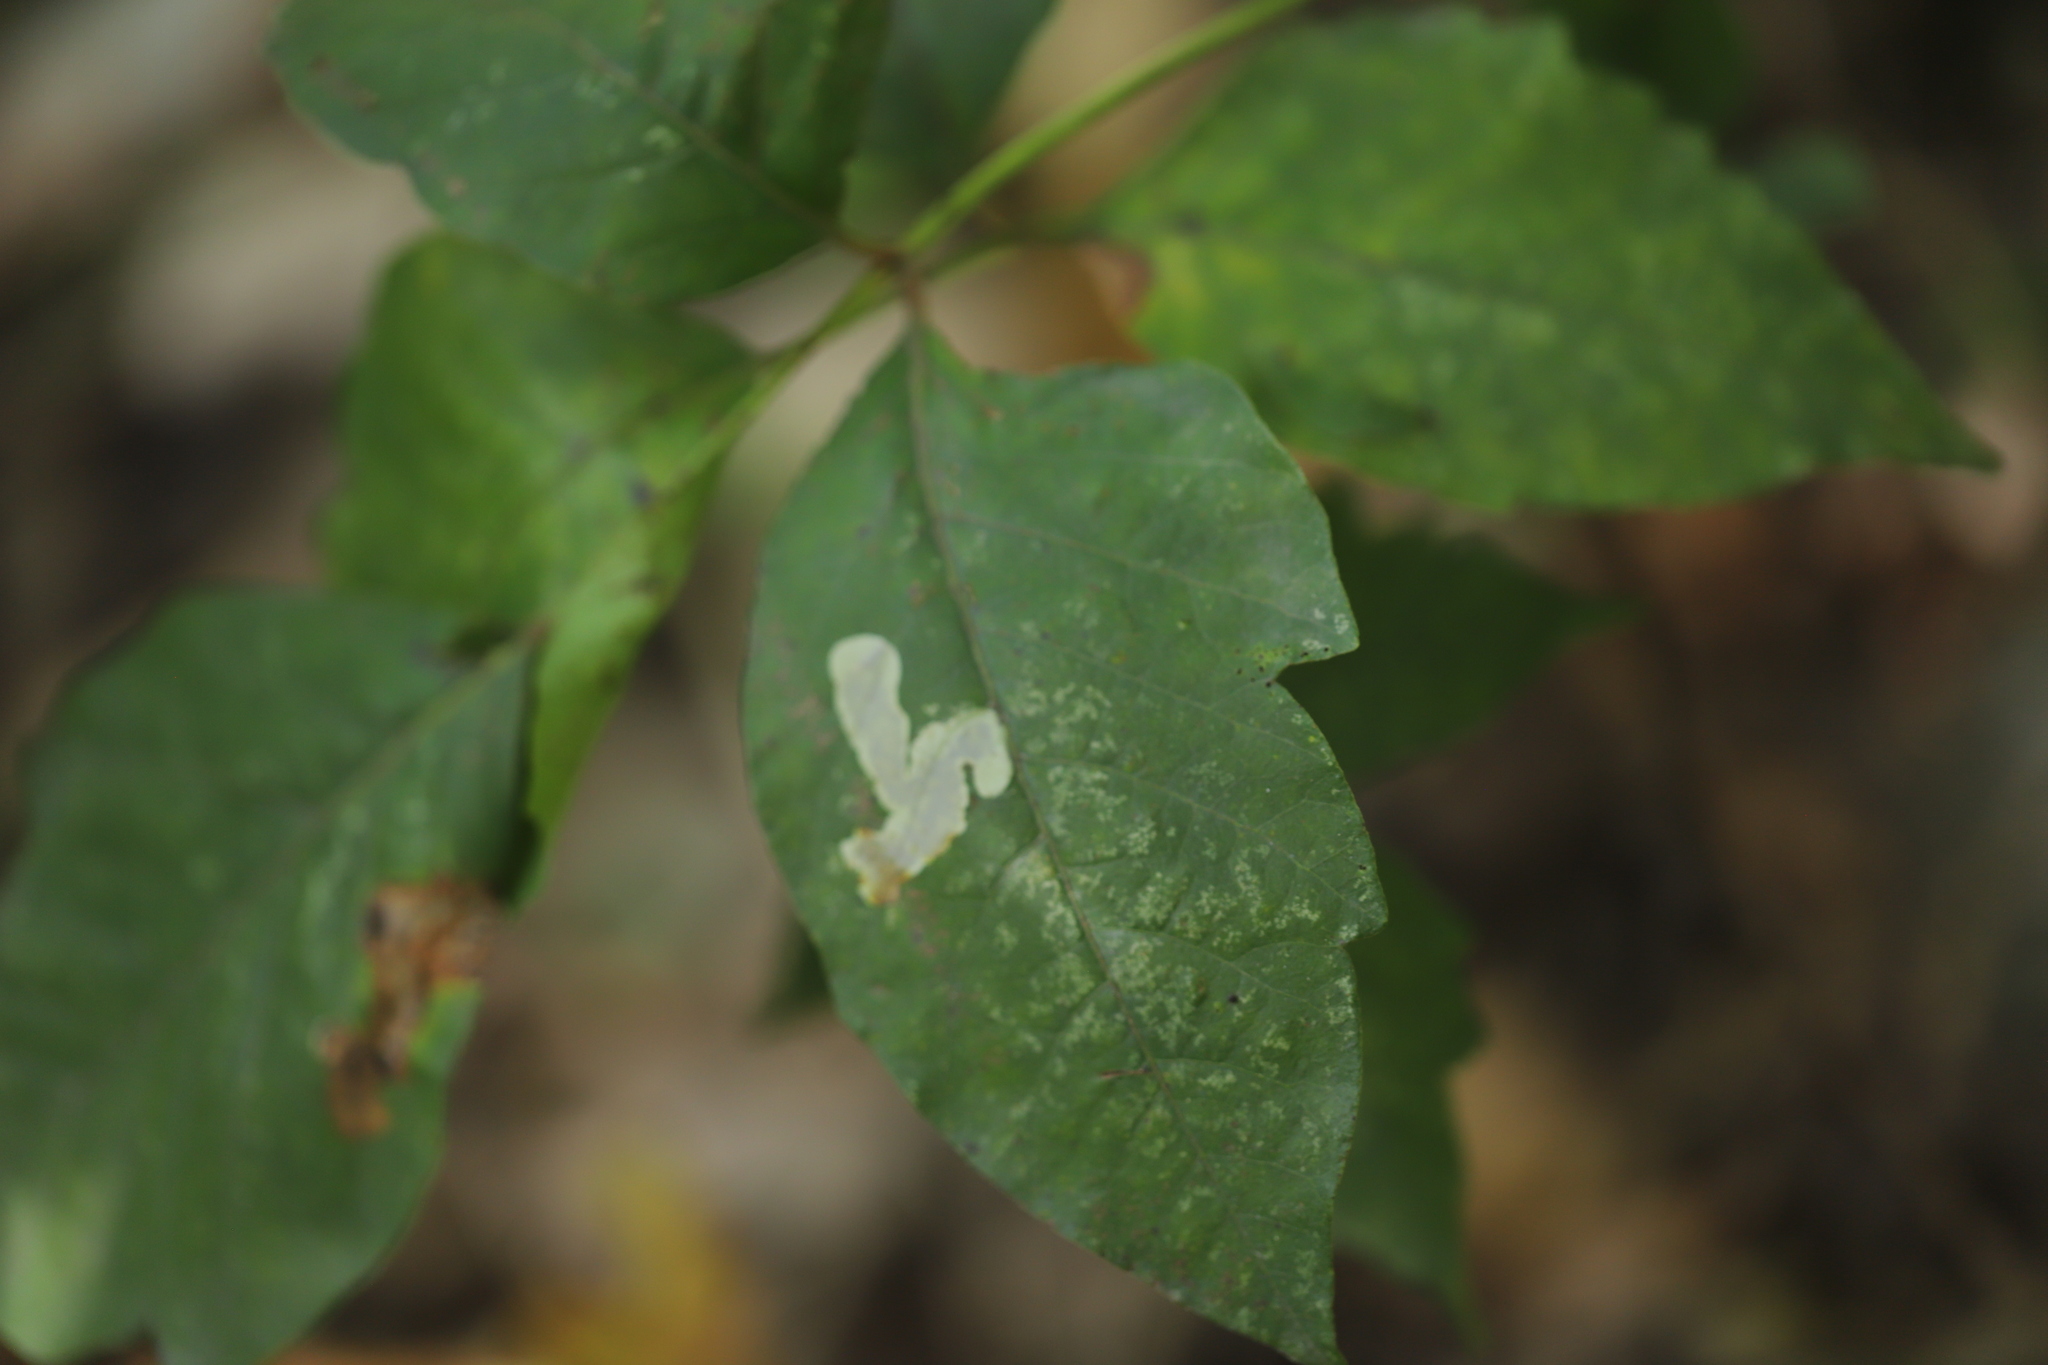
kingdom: Animalia
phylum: Arthropoda
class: Insecta
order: Lepidoptera
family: Gracillariidae
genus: Cameraria
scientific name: Cameraria guttifinitella
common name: Poison ivy leaf-miner moth
